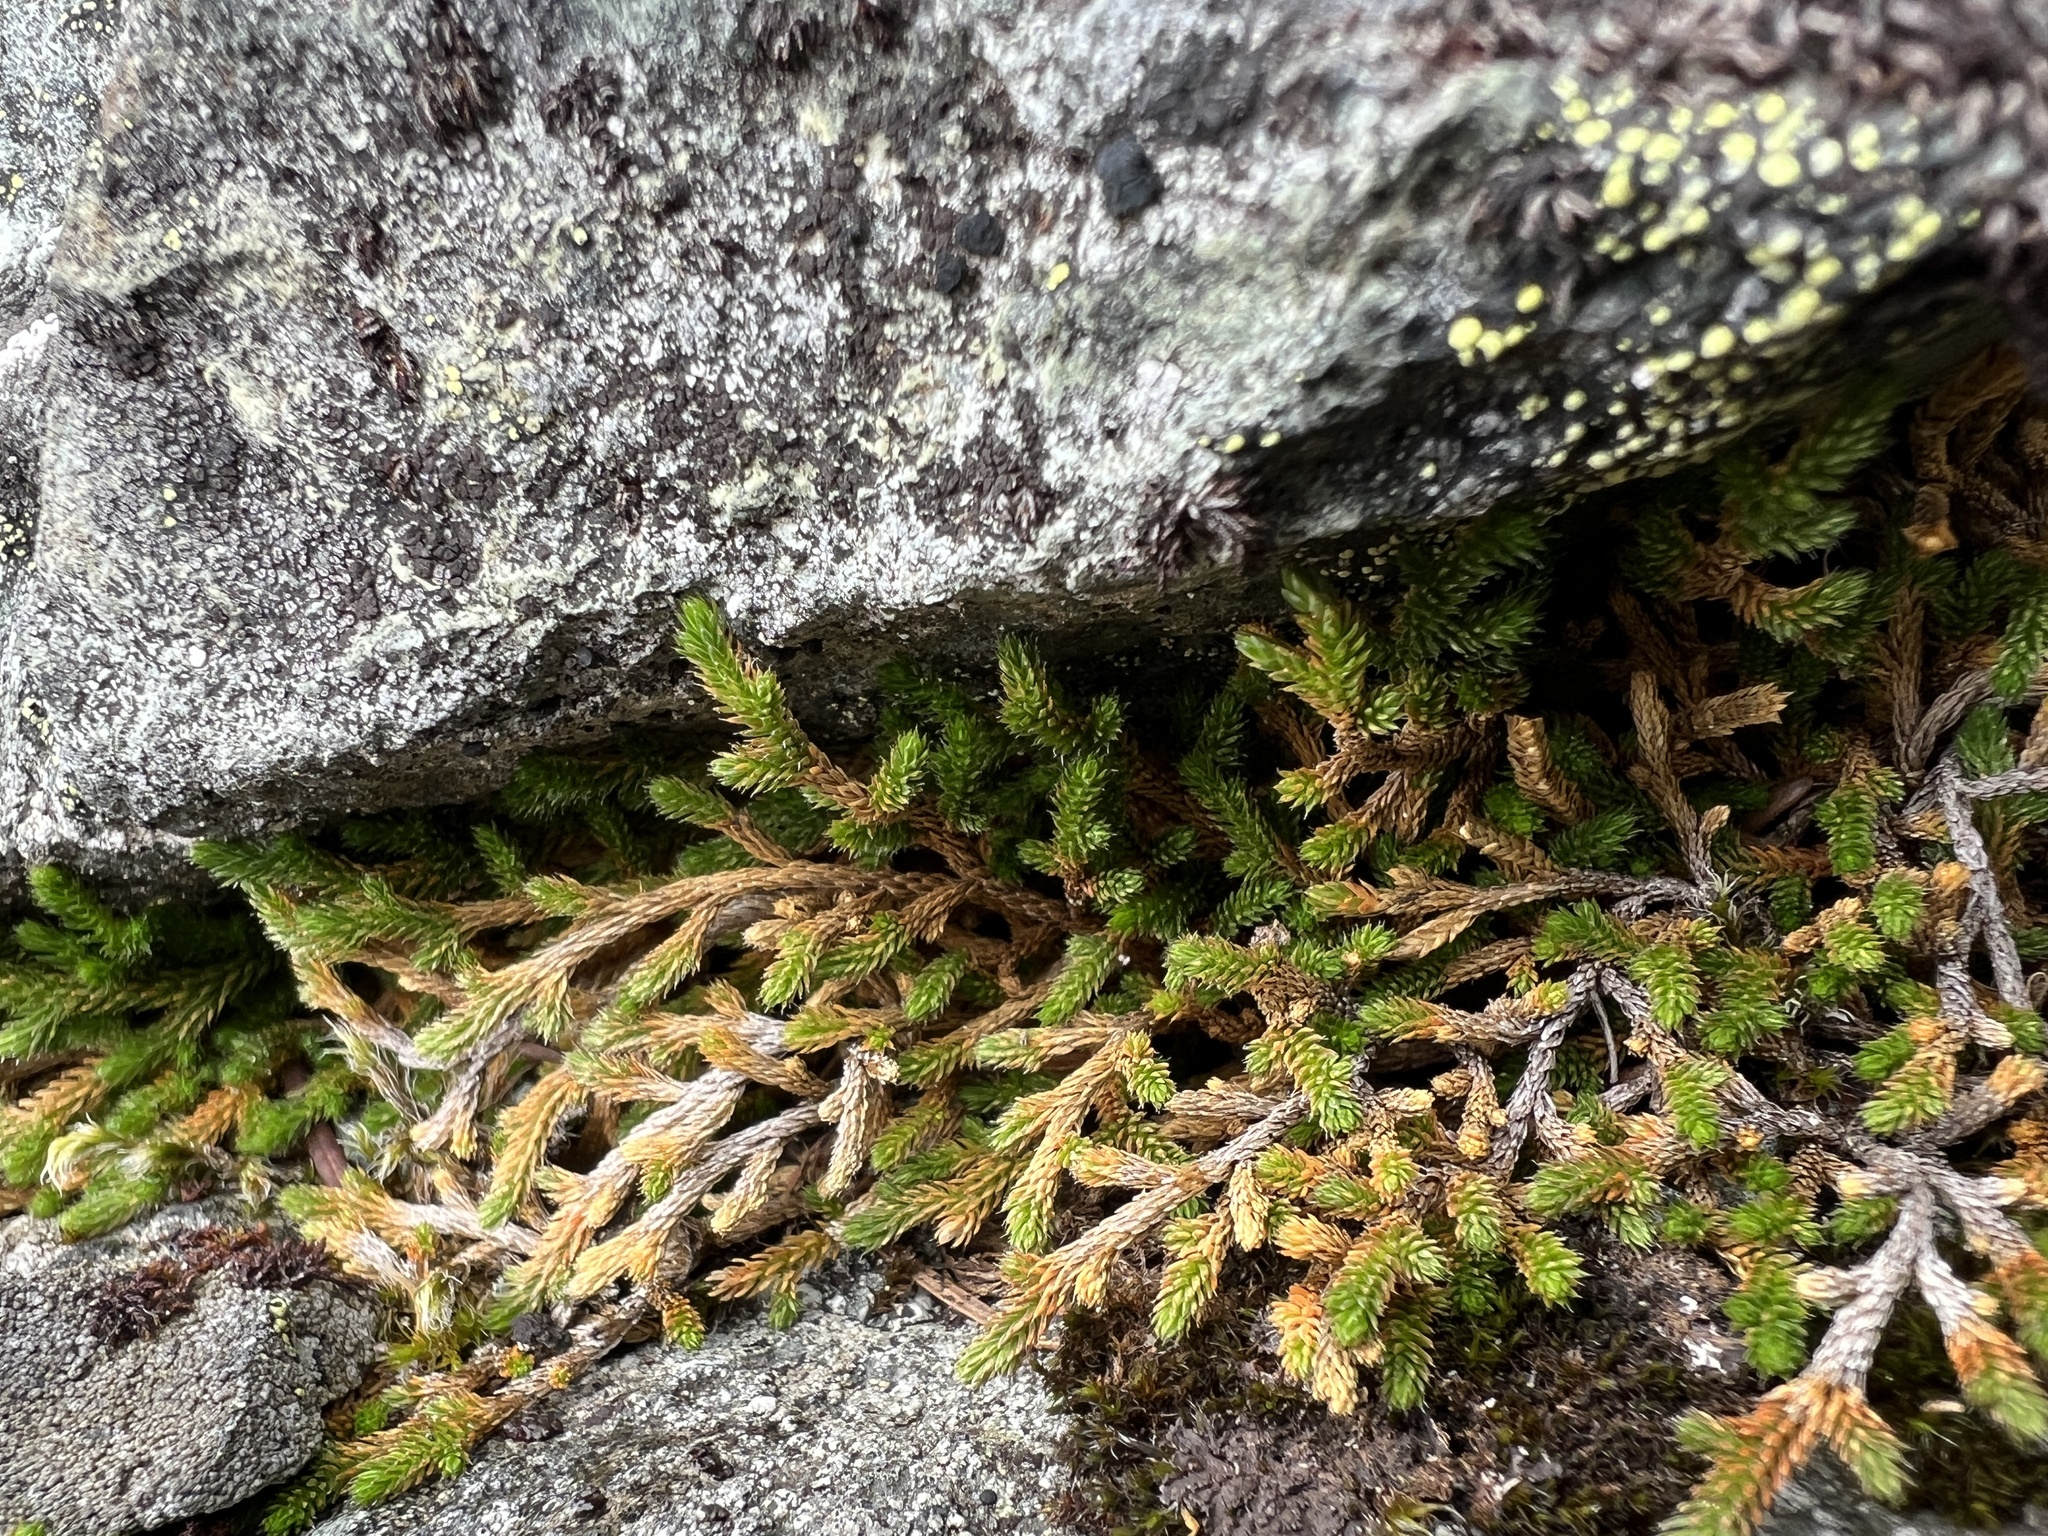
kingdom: Plantae
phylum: Tracheophyta
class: Lycopodiopsida
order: Selaginellales
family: Selaginellaceae
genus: Selaginella
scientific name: Selaginella wallacei
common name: Wallace's selaginella
